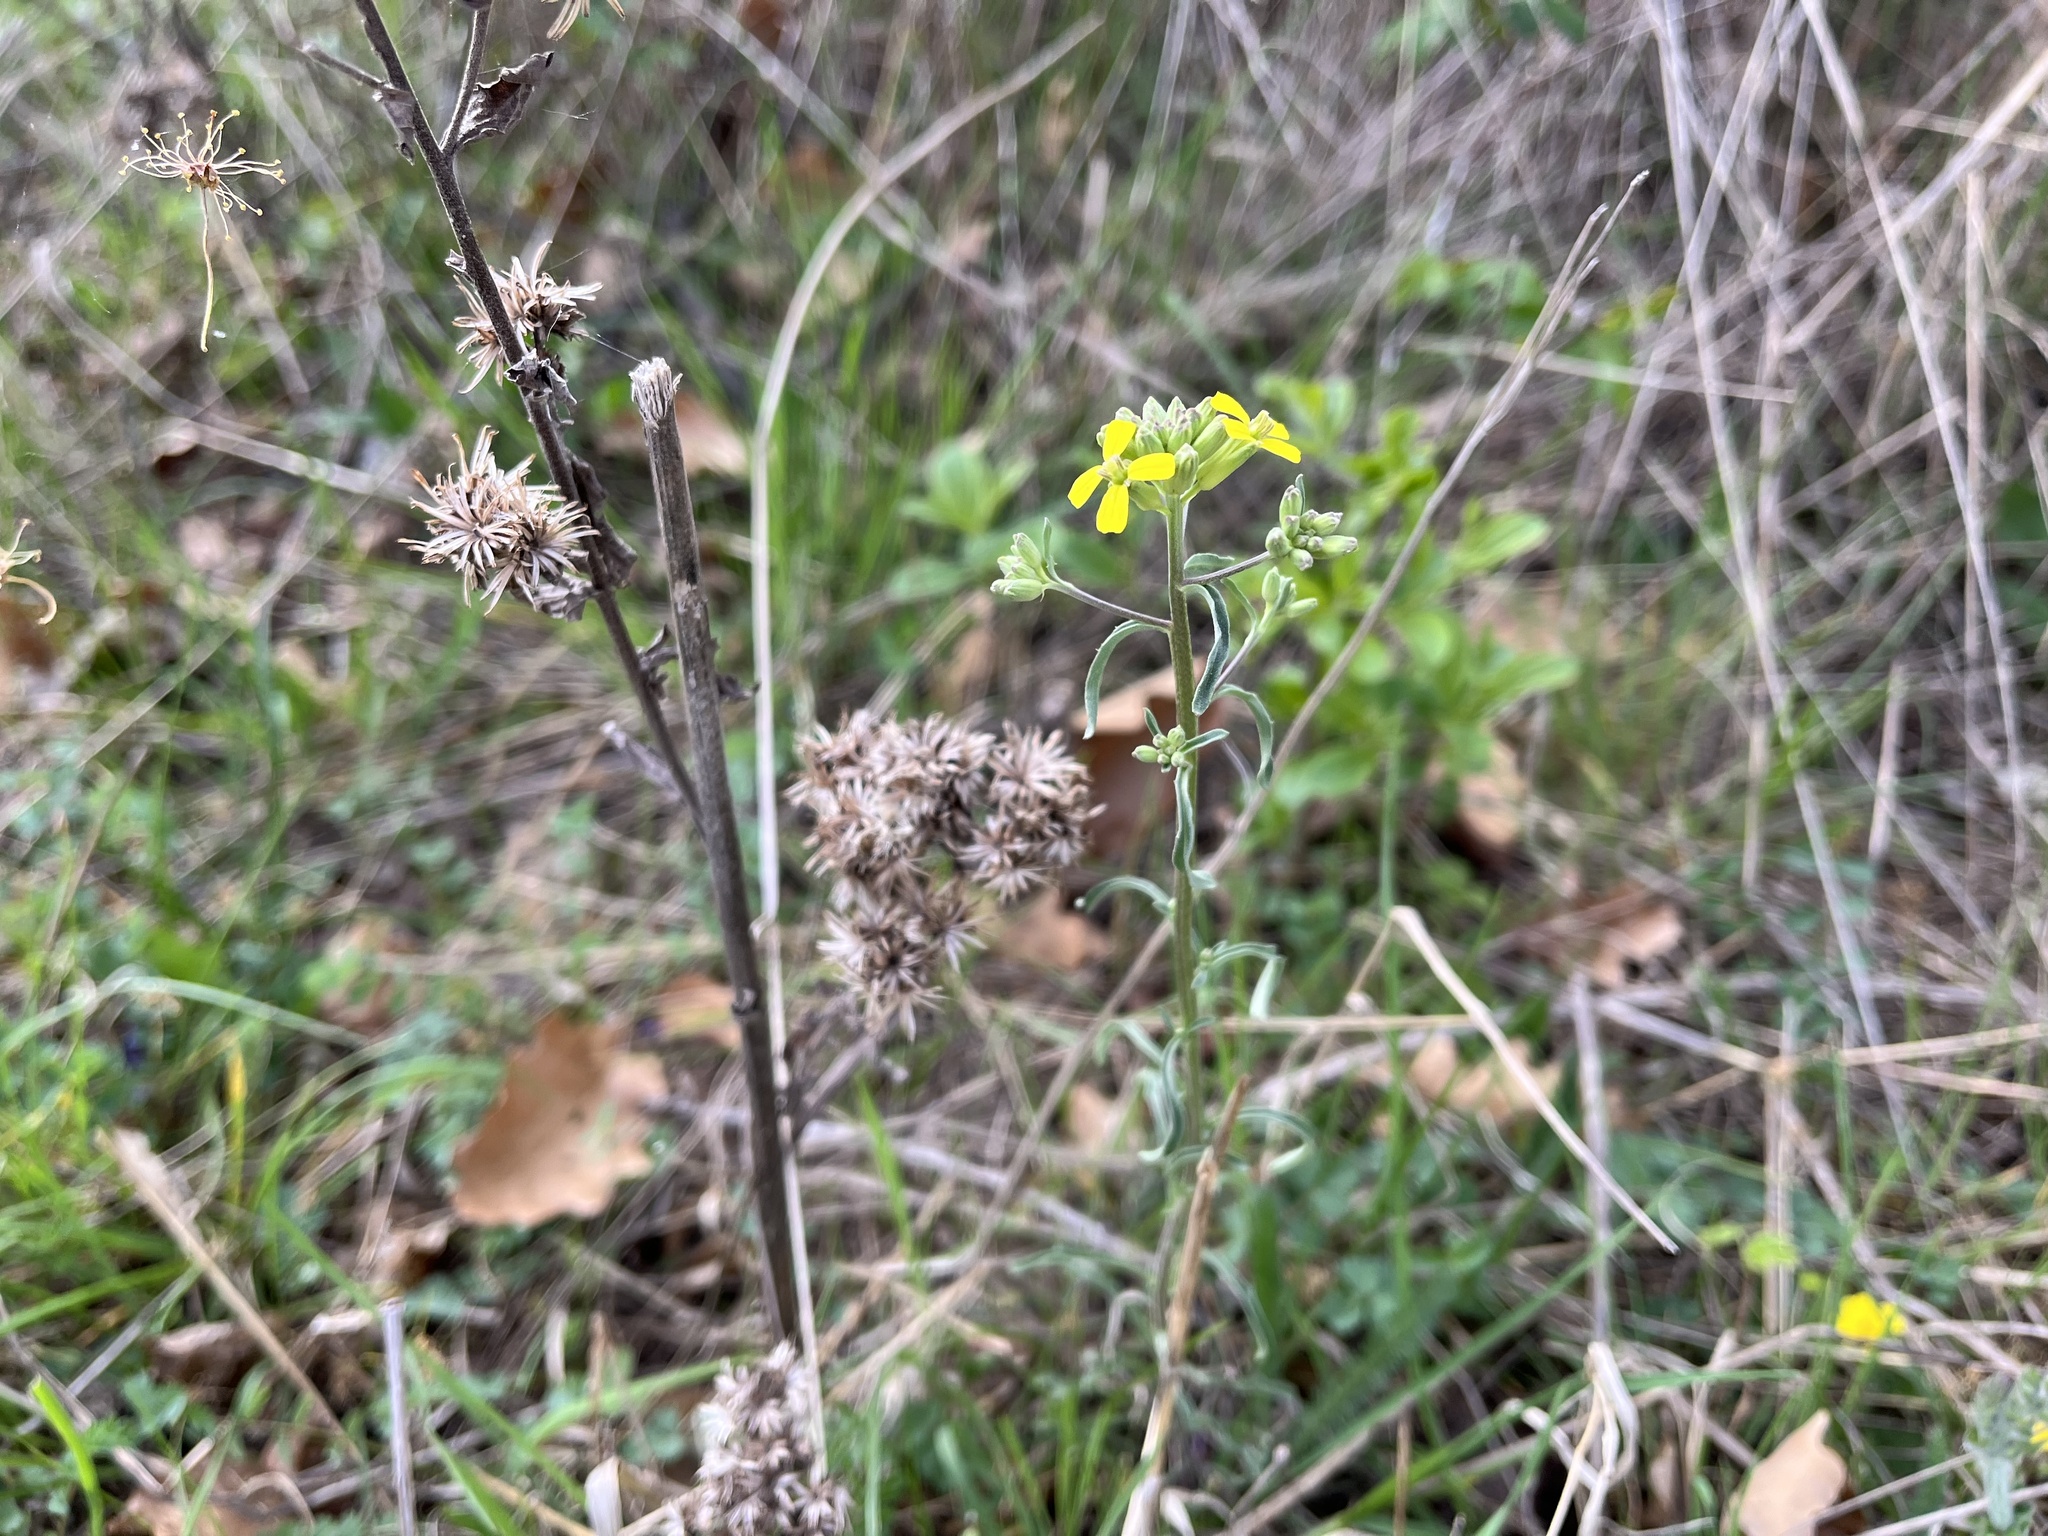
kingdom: Plantae
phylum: Tracheophyta
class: Magnoliopsida
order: Brassicales
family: Brassicaceae
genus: Erysimum
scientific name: Erysimum crepidifolium
